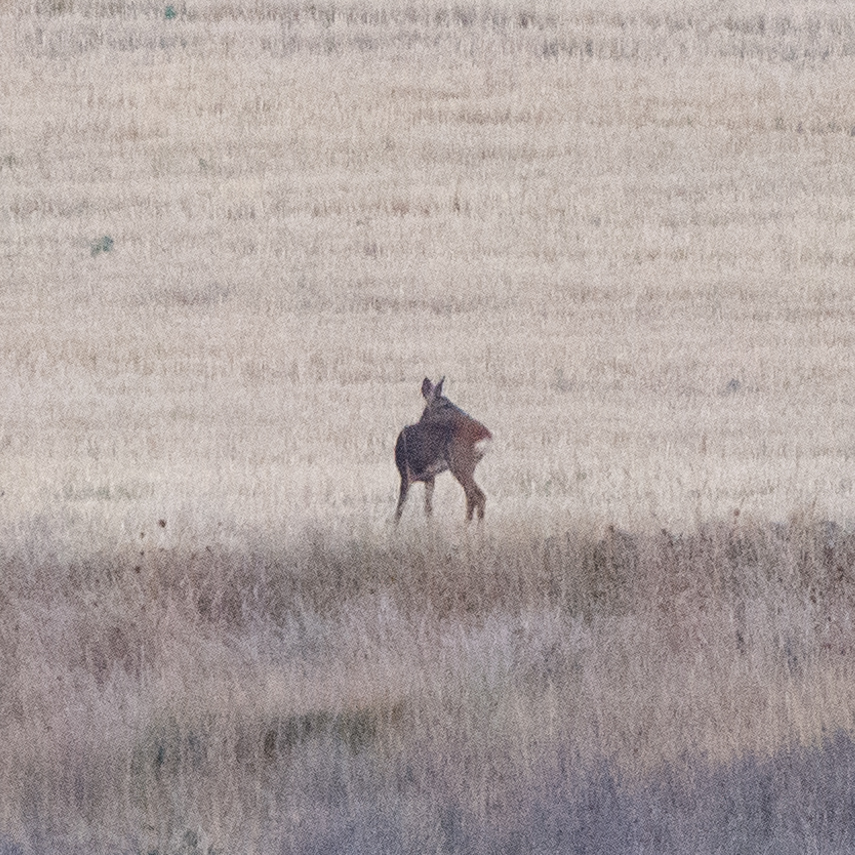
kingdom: Animalia
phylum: Chordata
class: Mammalia
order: Artiodactyla
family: Cervidae
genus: Capreolus
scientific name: Capreolus capreolus
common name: Western roe deer
